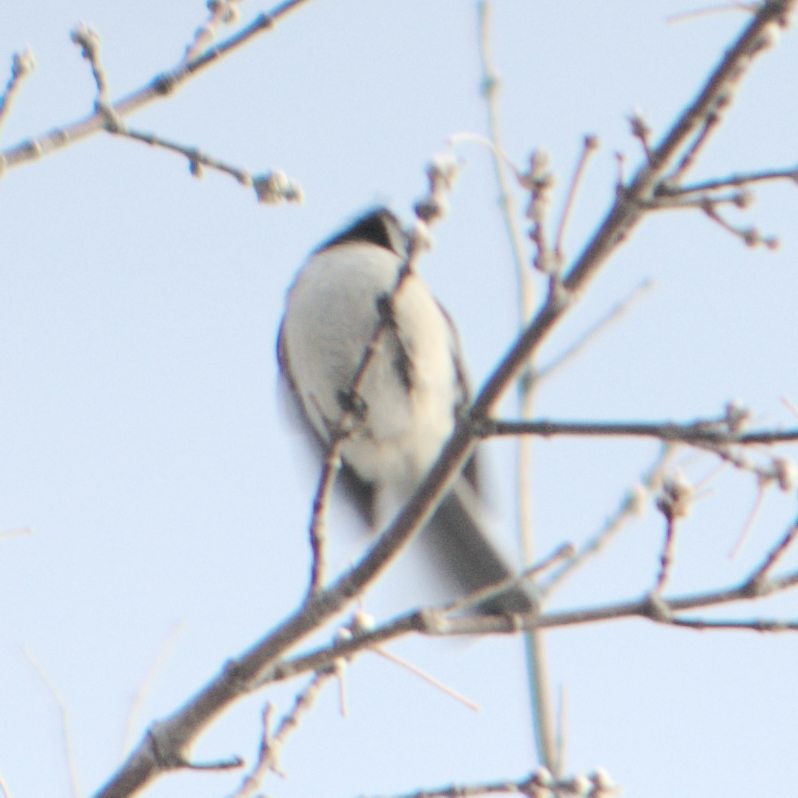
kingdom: Animalia
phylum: Chordata
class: Aves
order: Passeriformes
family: Paridae
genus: Poecile
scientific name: Poecile atricapillus
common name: Black-capped chickadee
